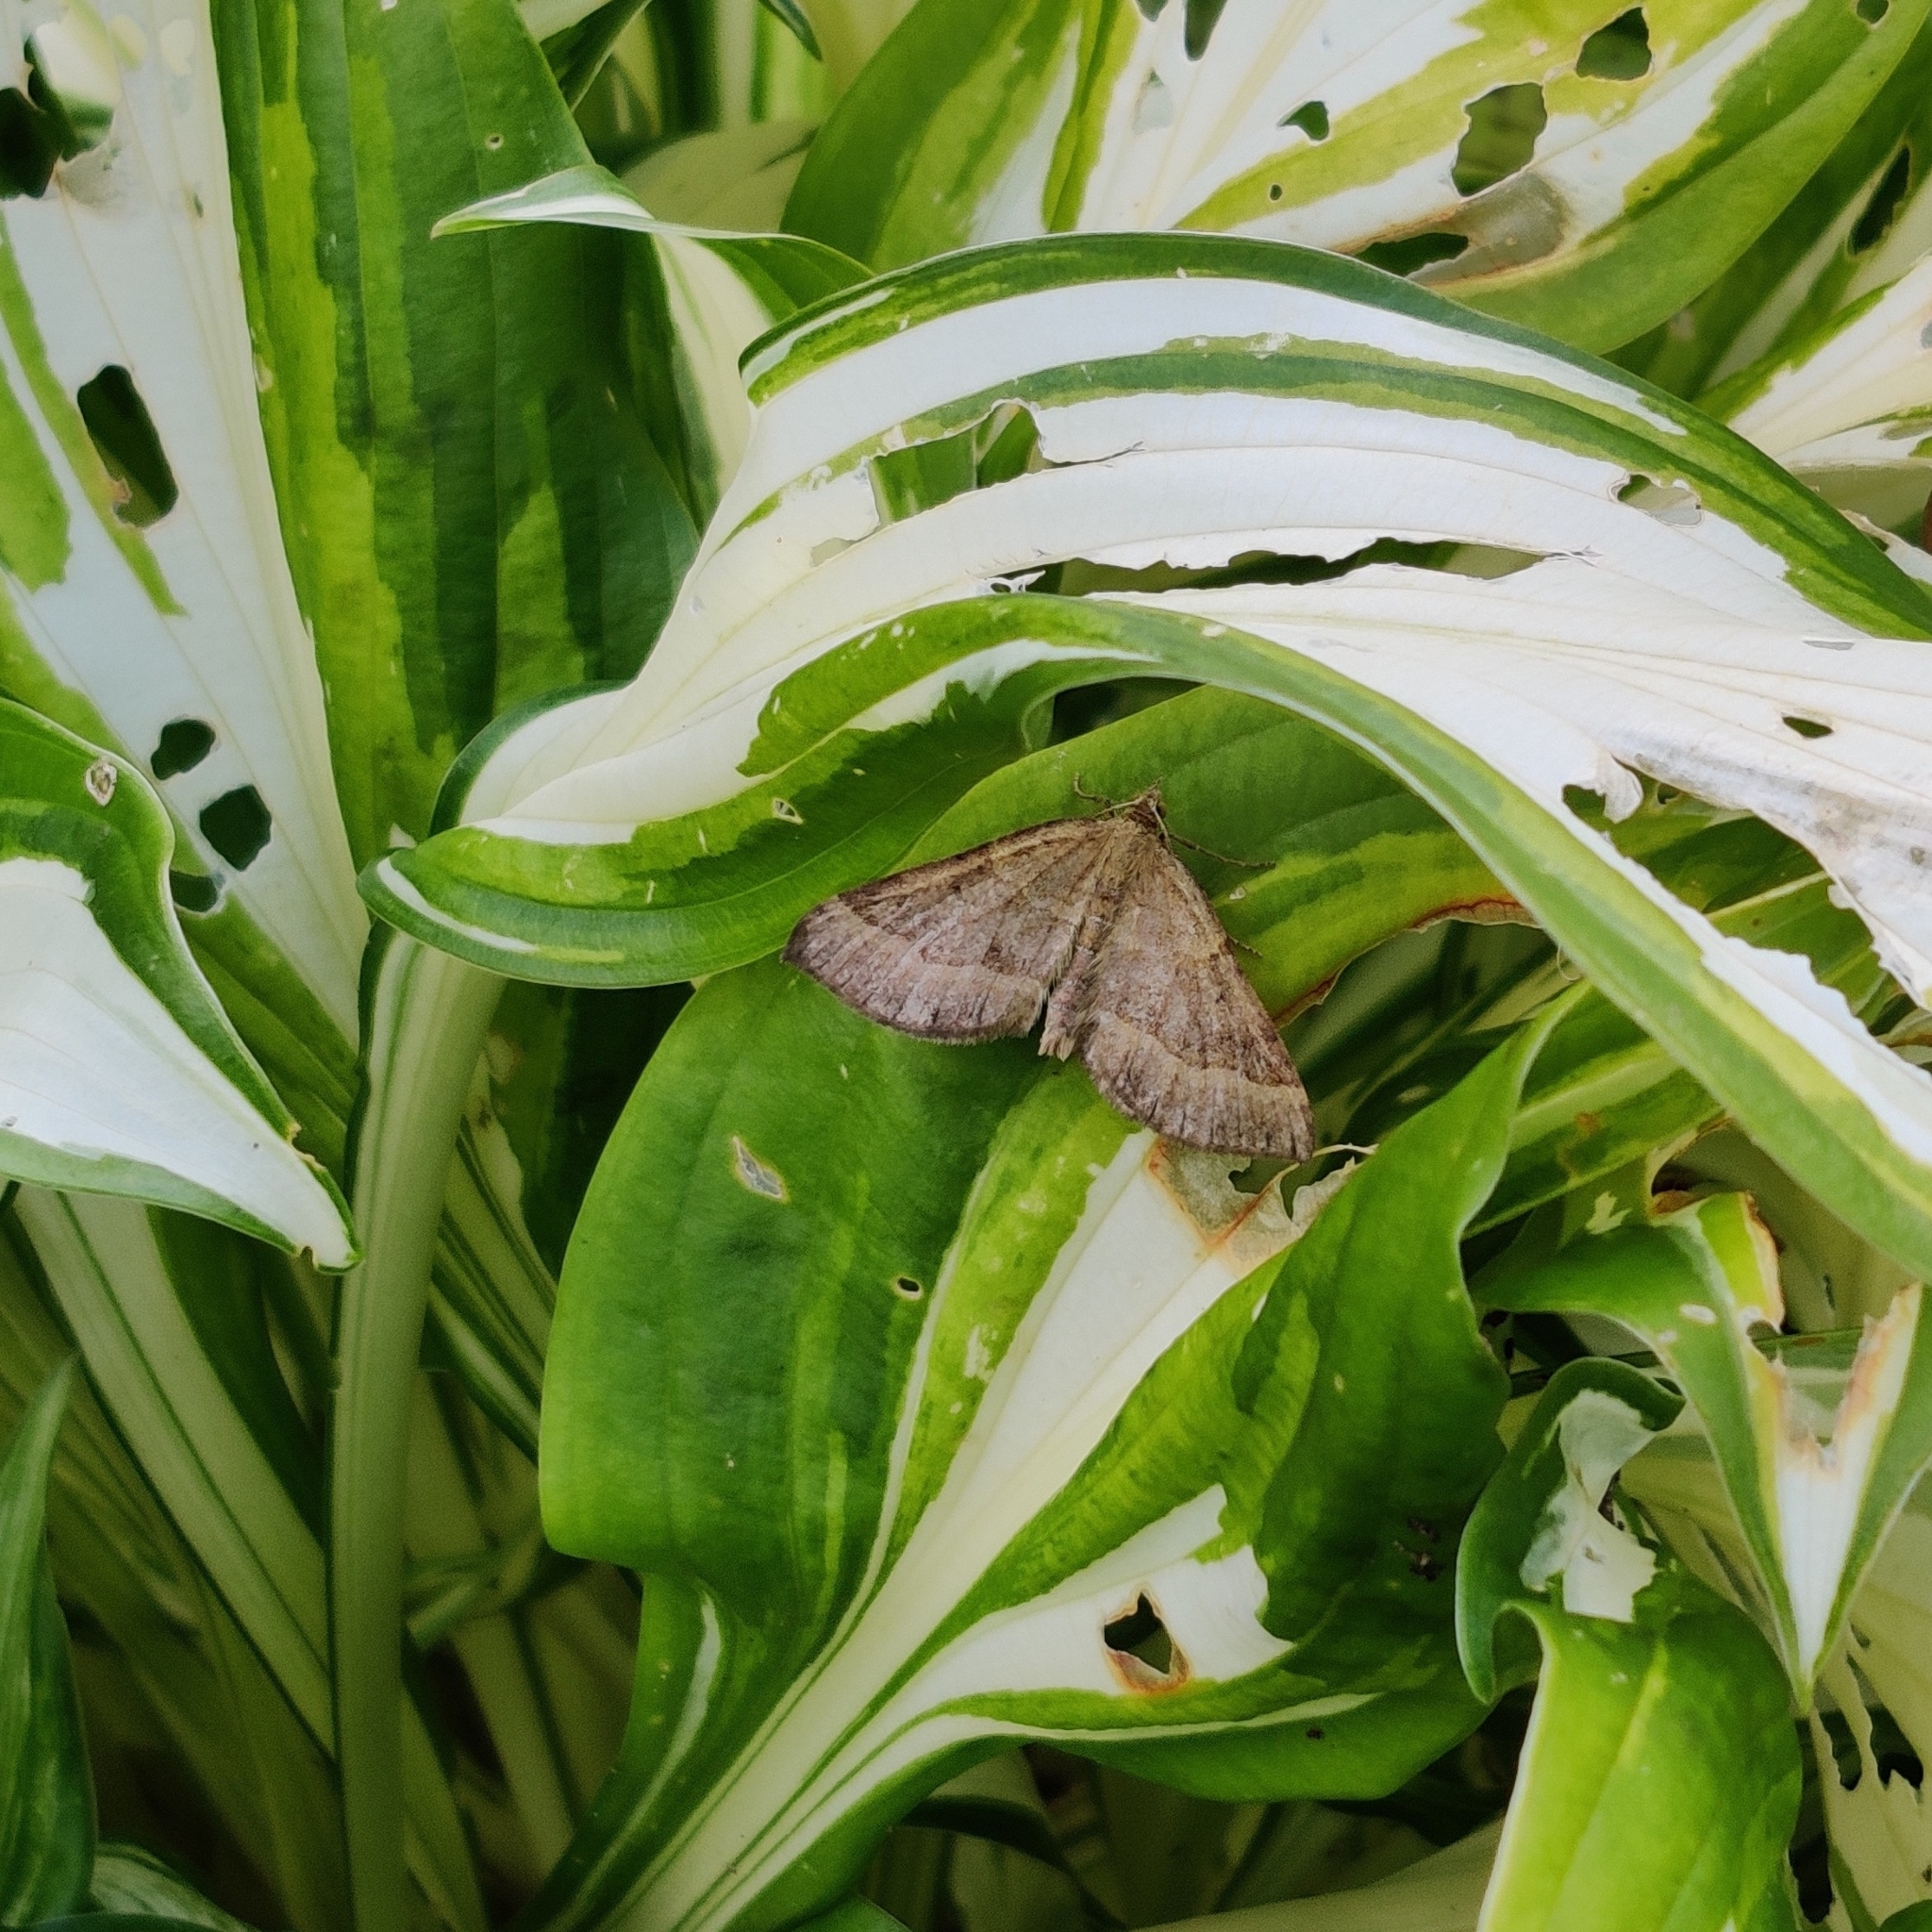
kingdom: Animalia
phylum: Arthropoda
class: Insecta
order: Lepidoptera
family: Geometridae
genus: Scotopteryx
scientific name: Scotopteryx chenopodiata
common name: Shaded broad-bar
